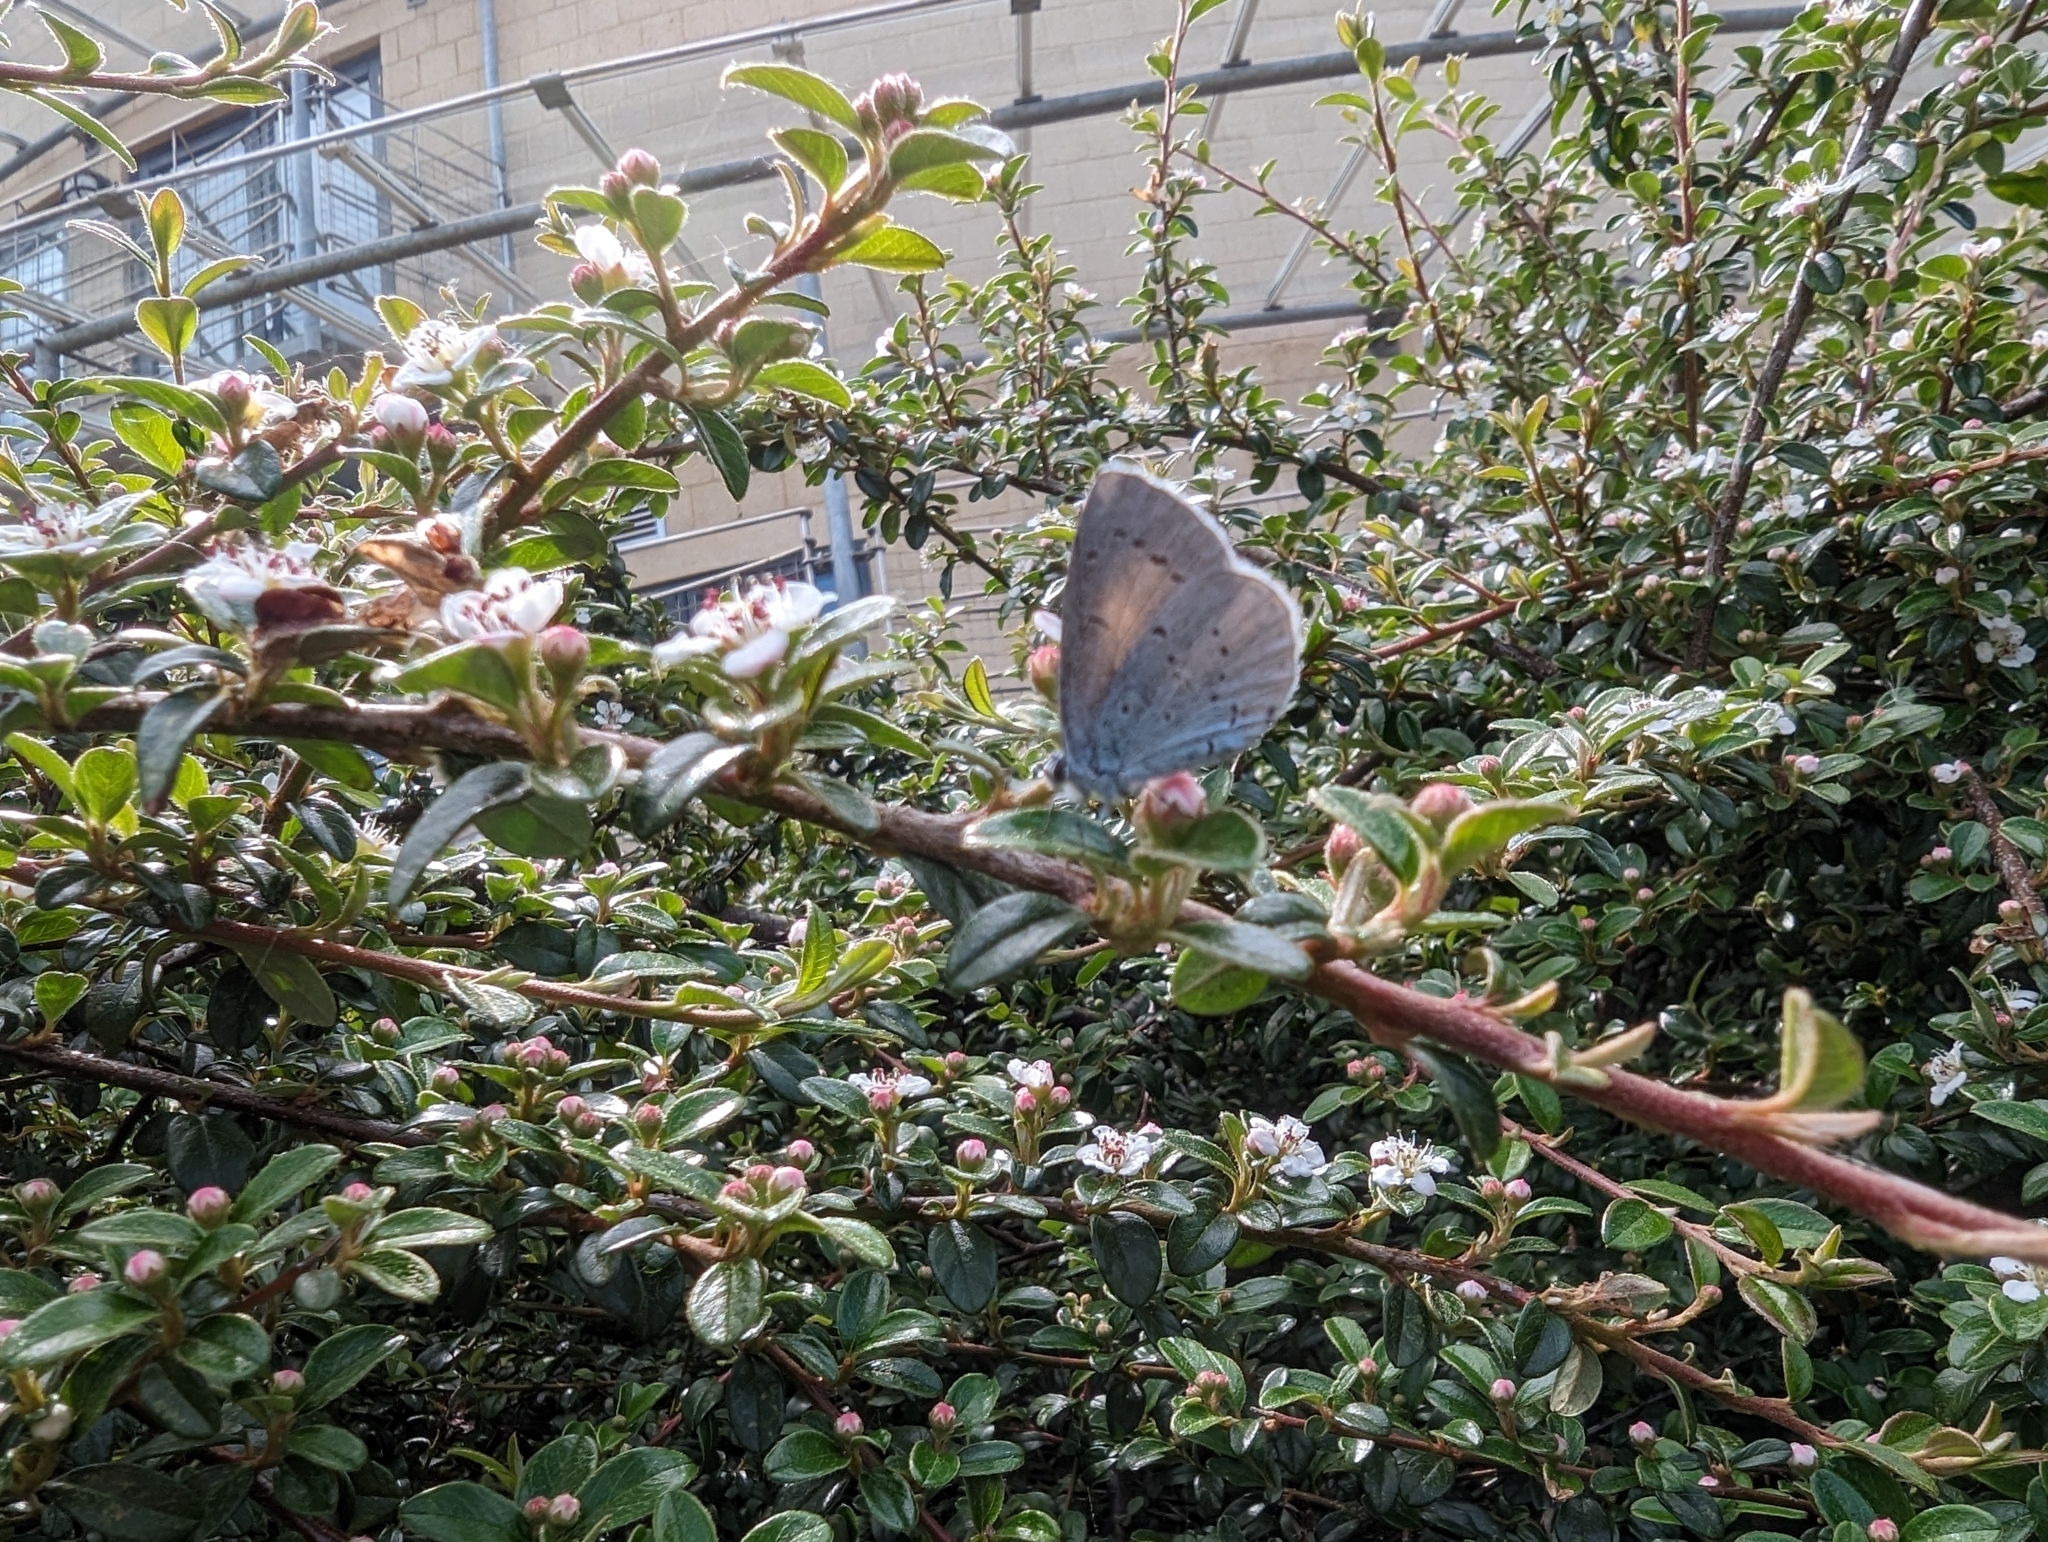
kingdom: Animalia
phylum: Arthropoda
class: Insecta
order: Lepidoptera
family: Lycaenidae
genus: Celastrina
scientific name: Celastrina argiolus
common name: Holly blue
